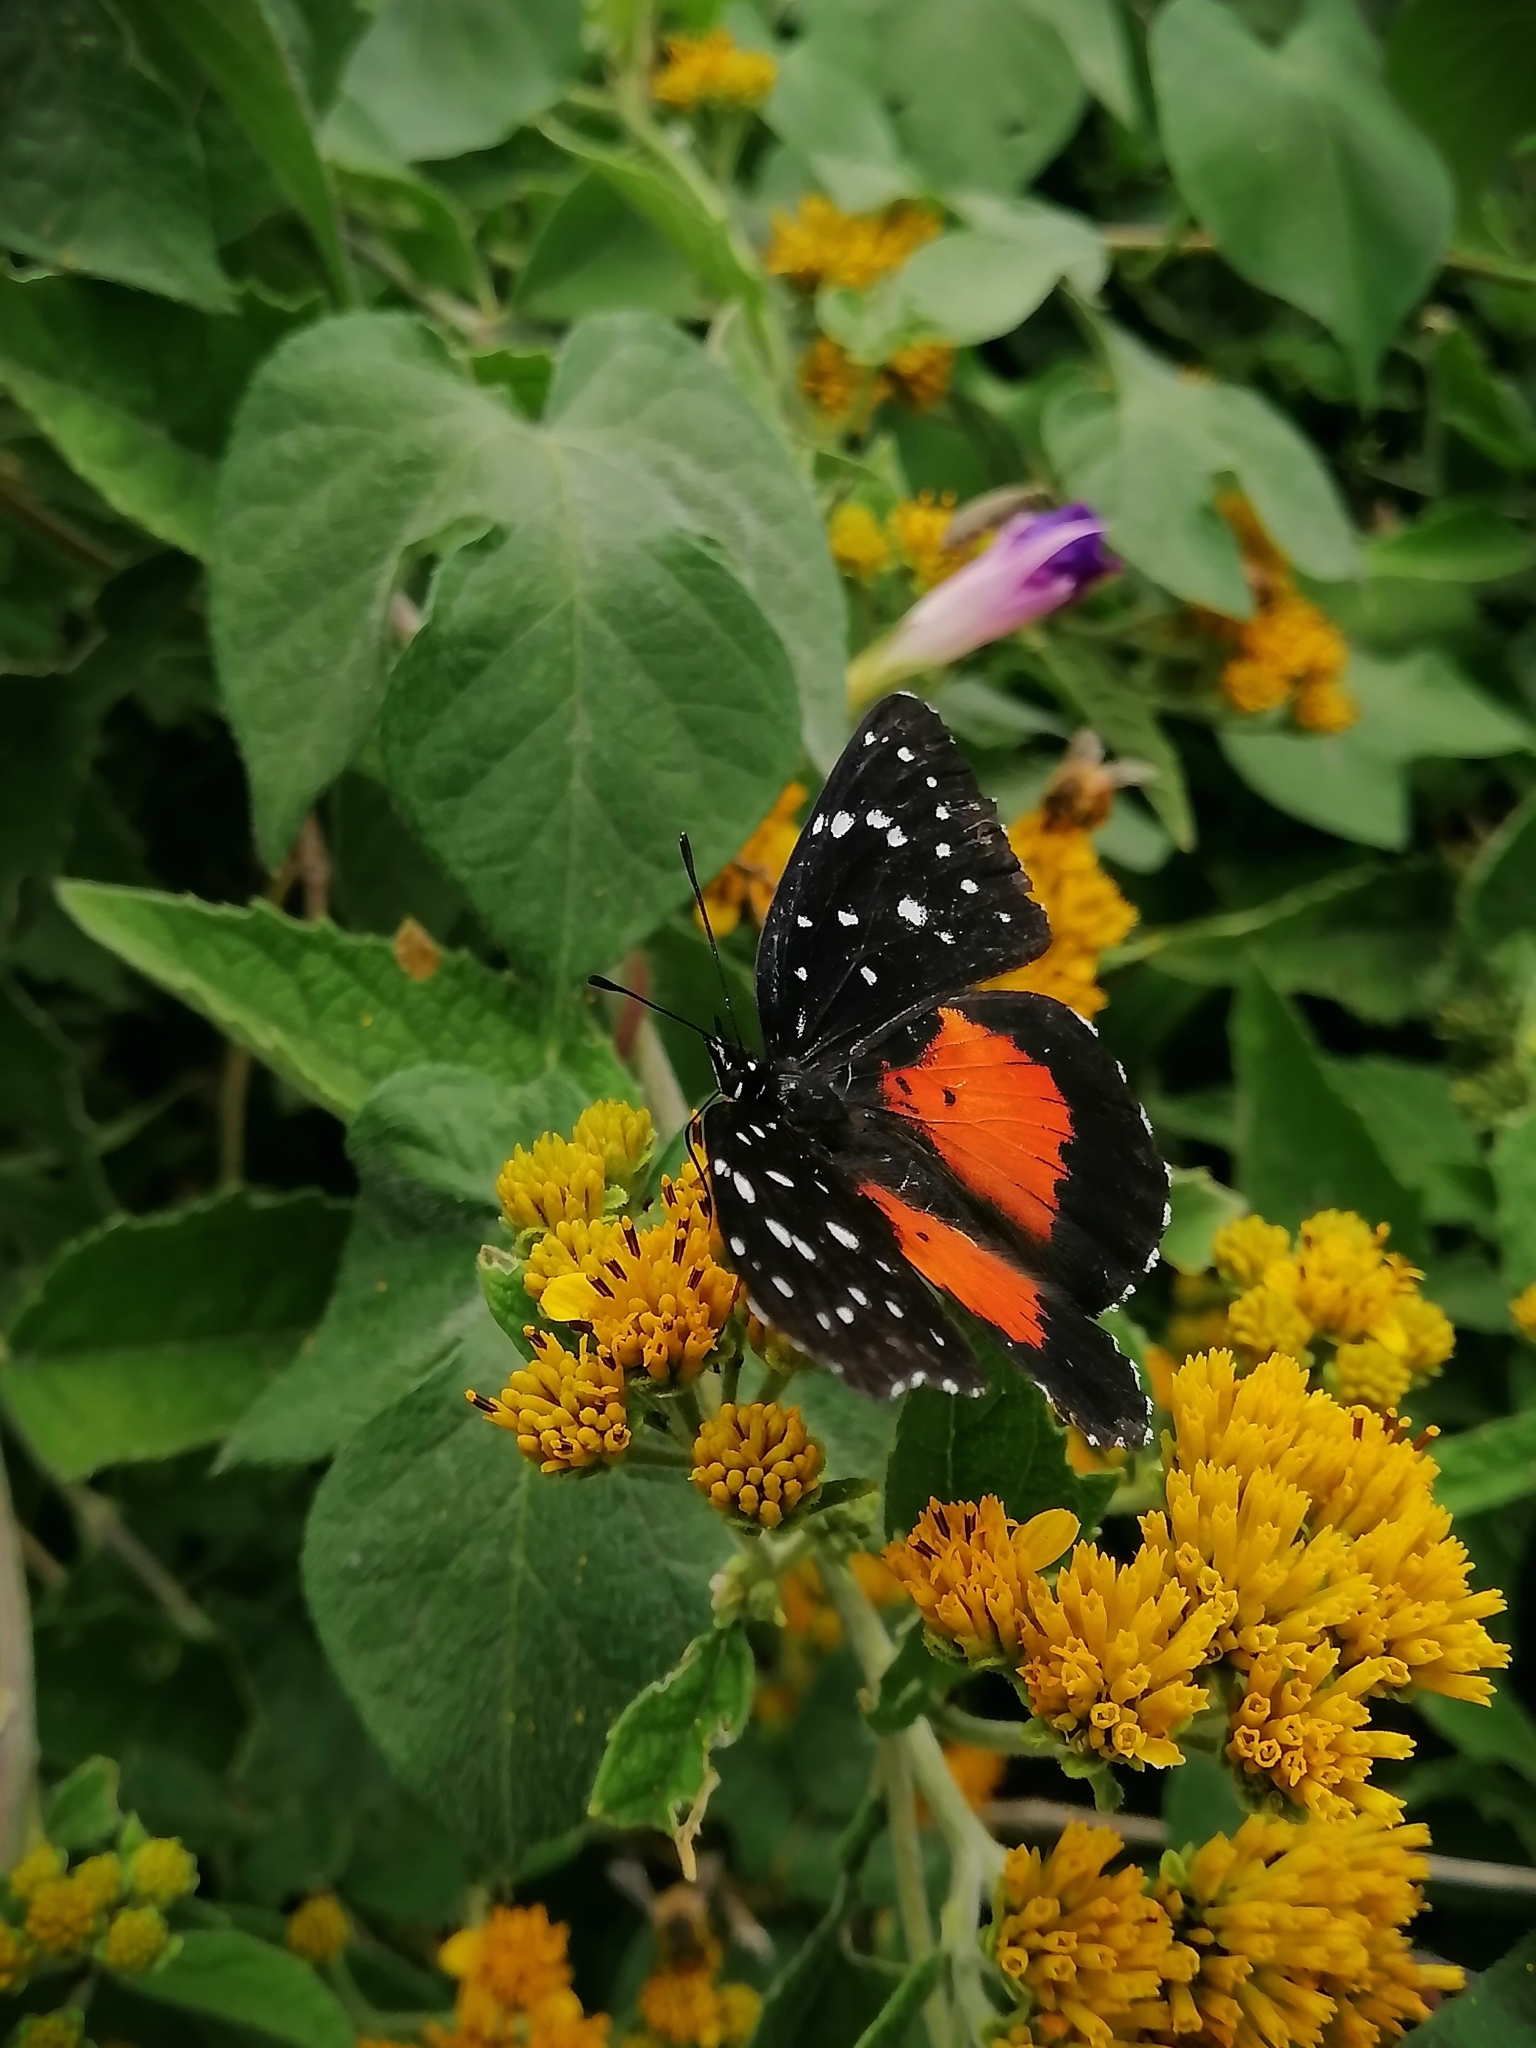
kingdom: Animalia
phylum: Arthropoda
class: Insecta
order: Lepidoptera
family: Nymphalidae
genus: Chlosyne
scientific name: Chlosyne janais
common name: Crimson patch
